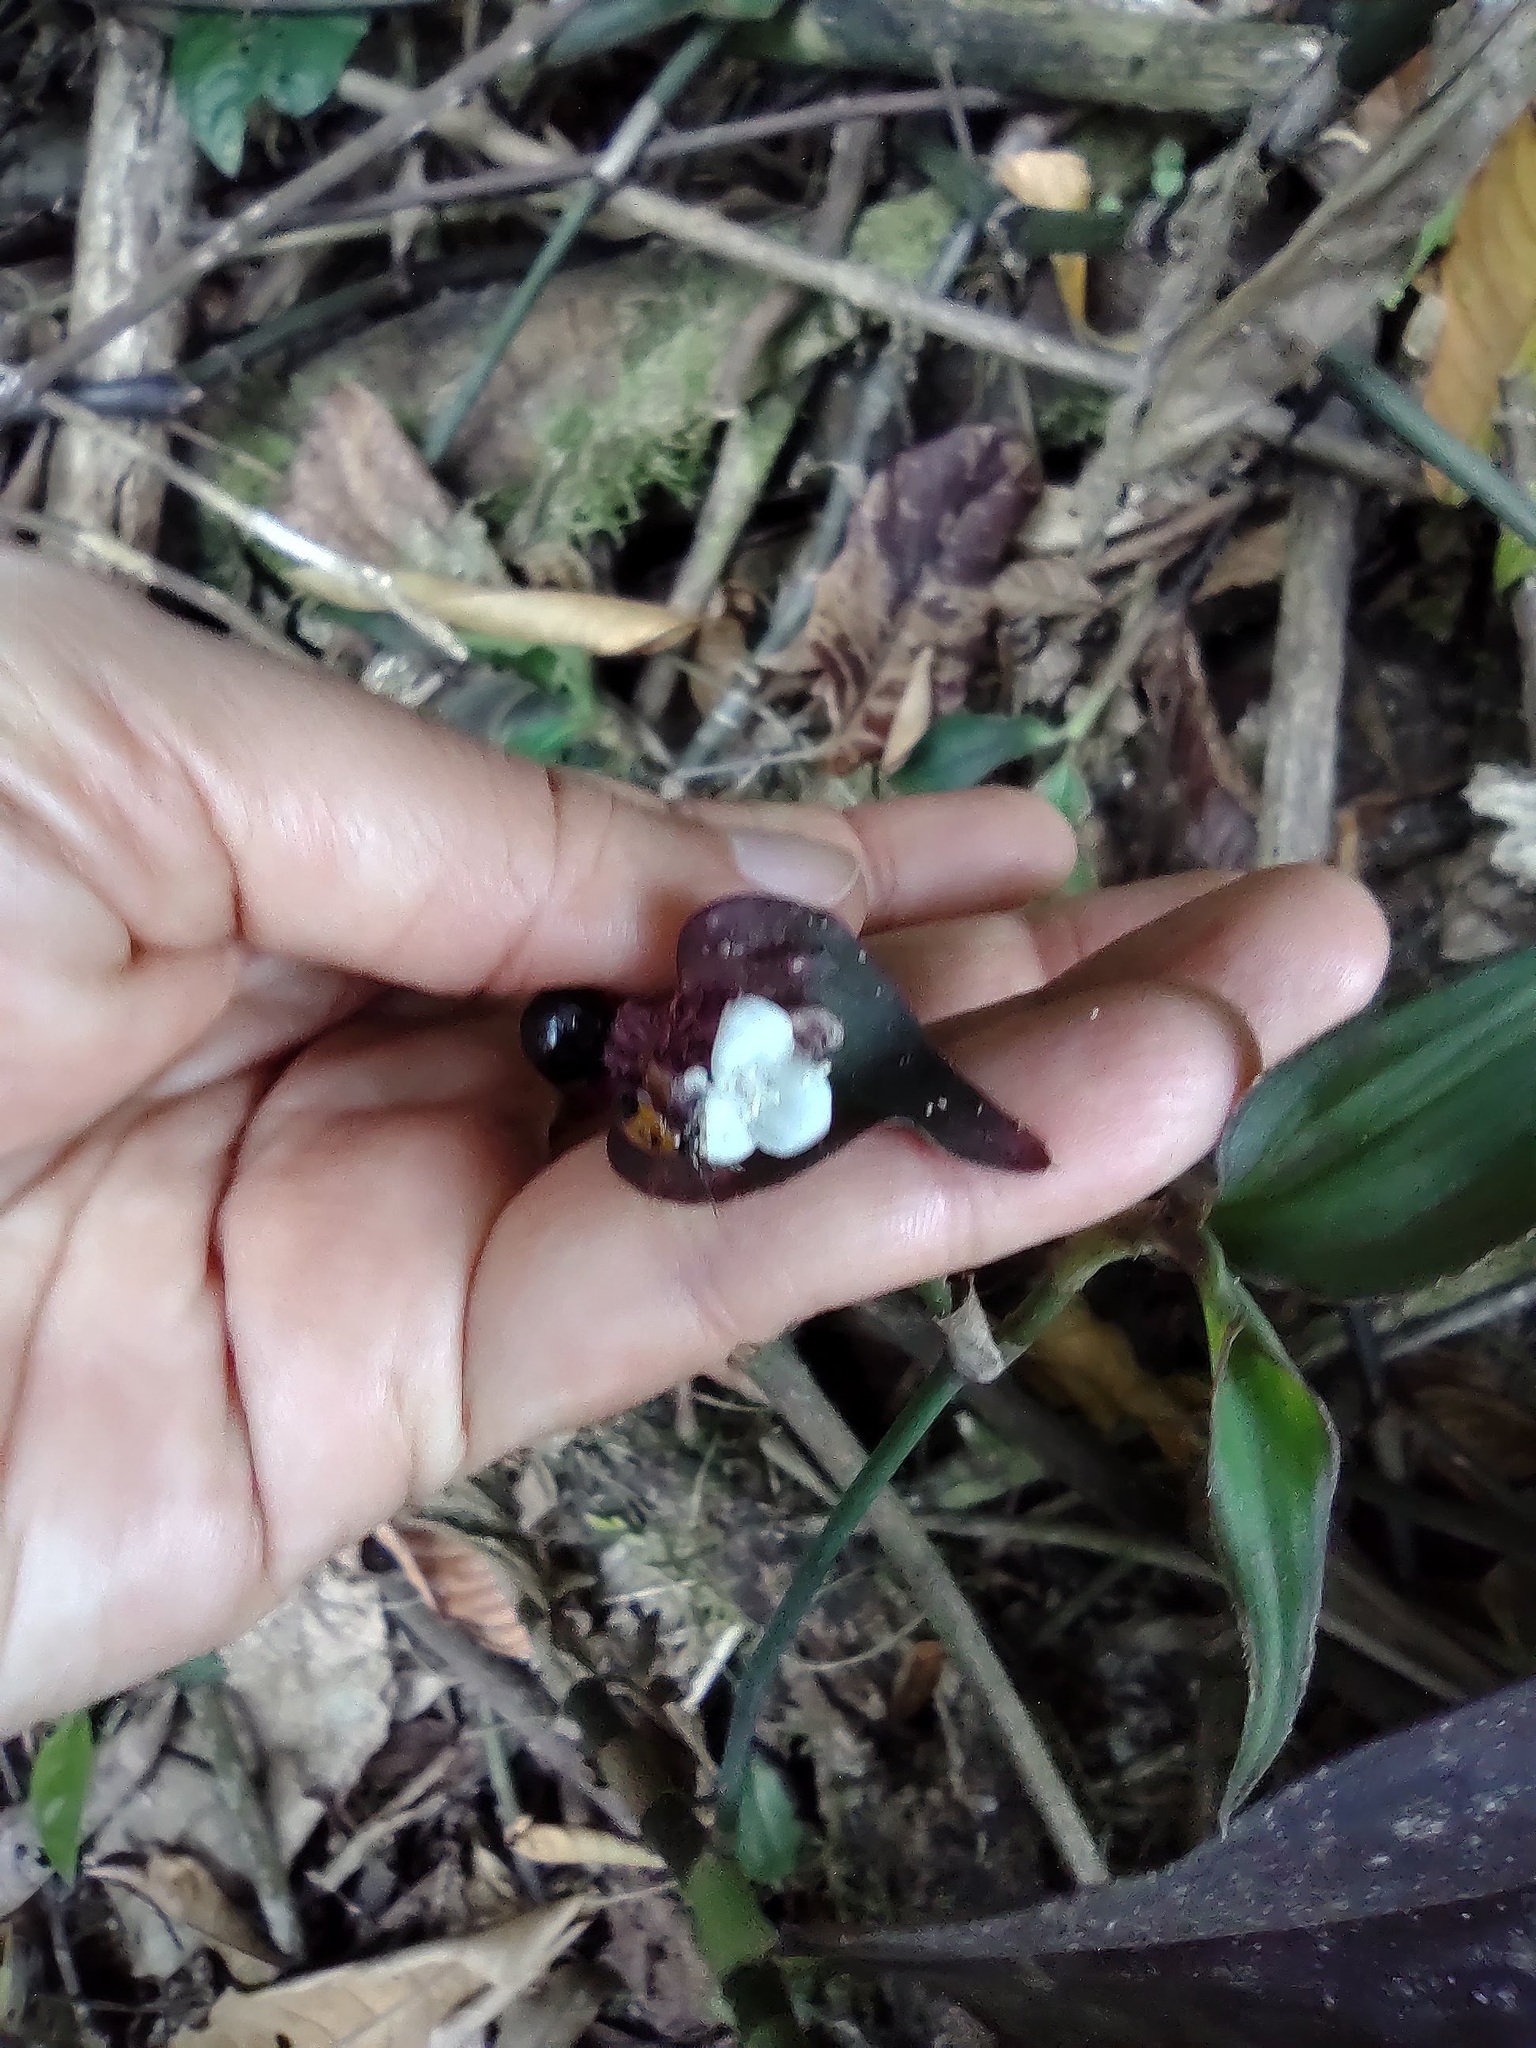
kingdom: Plantae
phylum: Tracheophyta
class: Liliopsida
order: Commelinales
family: Commelinaceae
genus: Tradescantia
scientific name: Tradescantia zanonia
